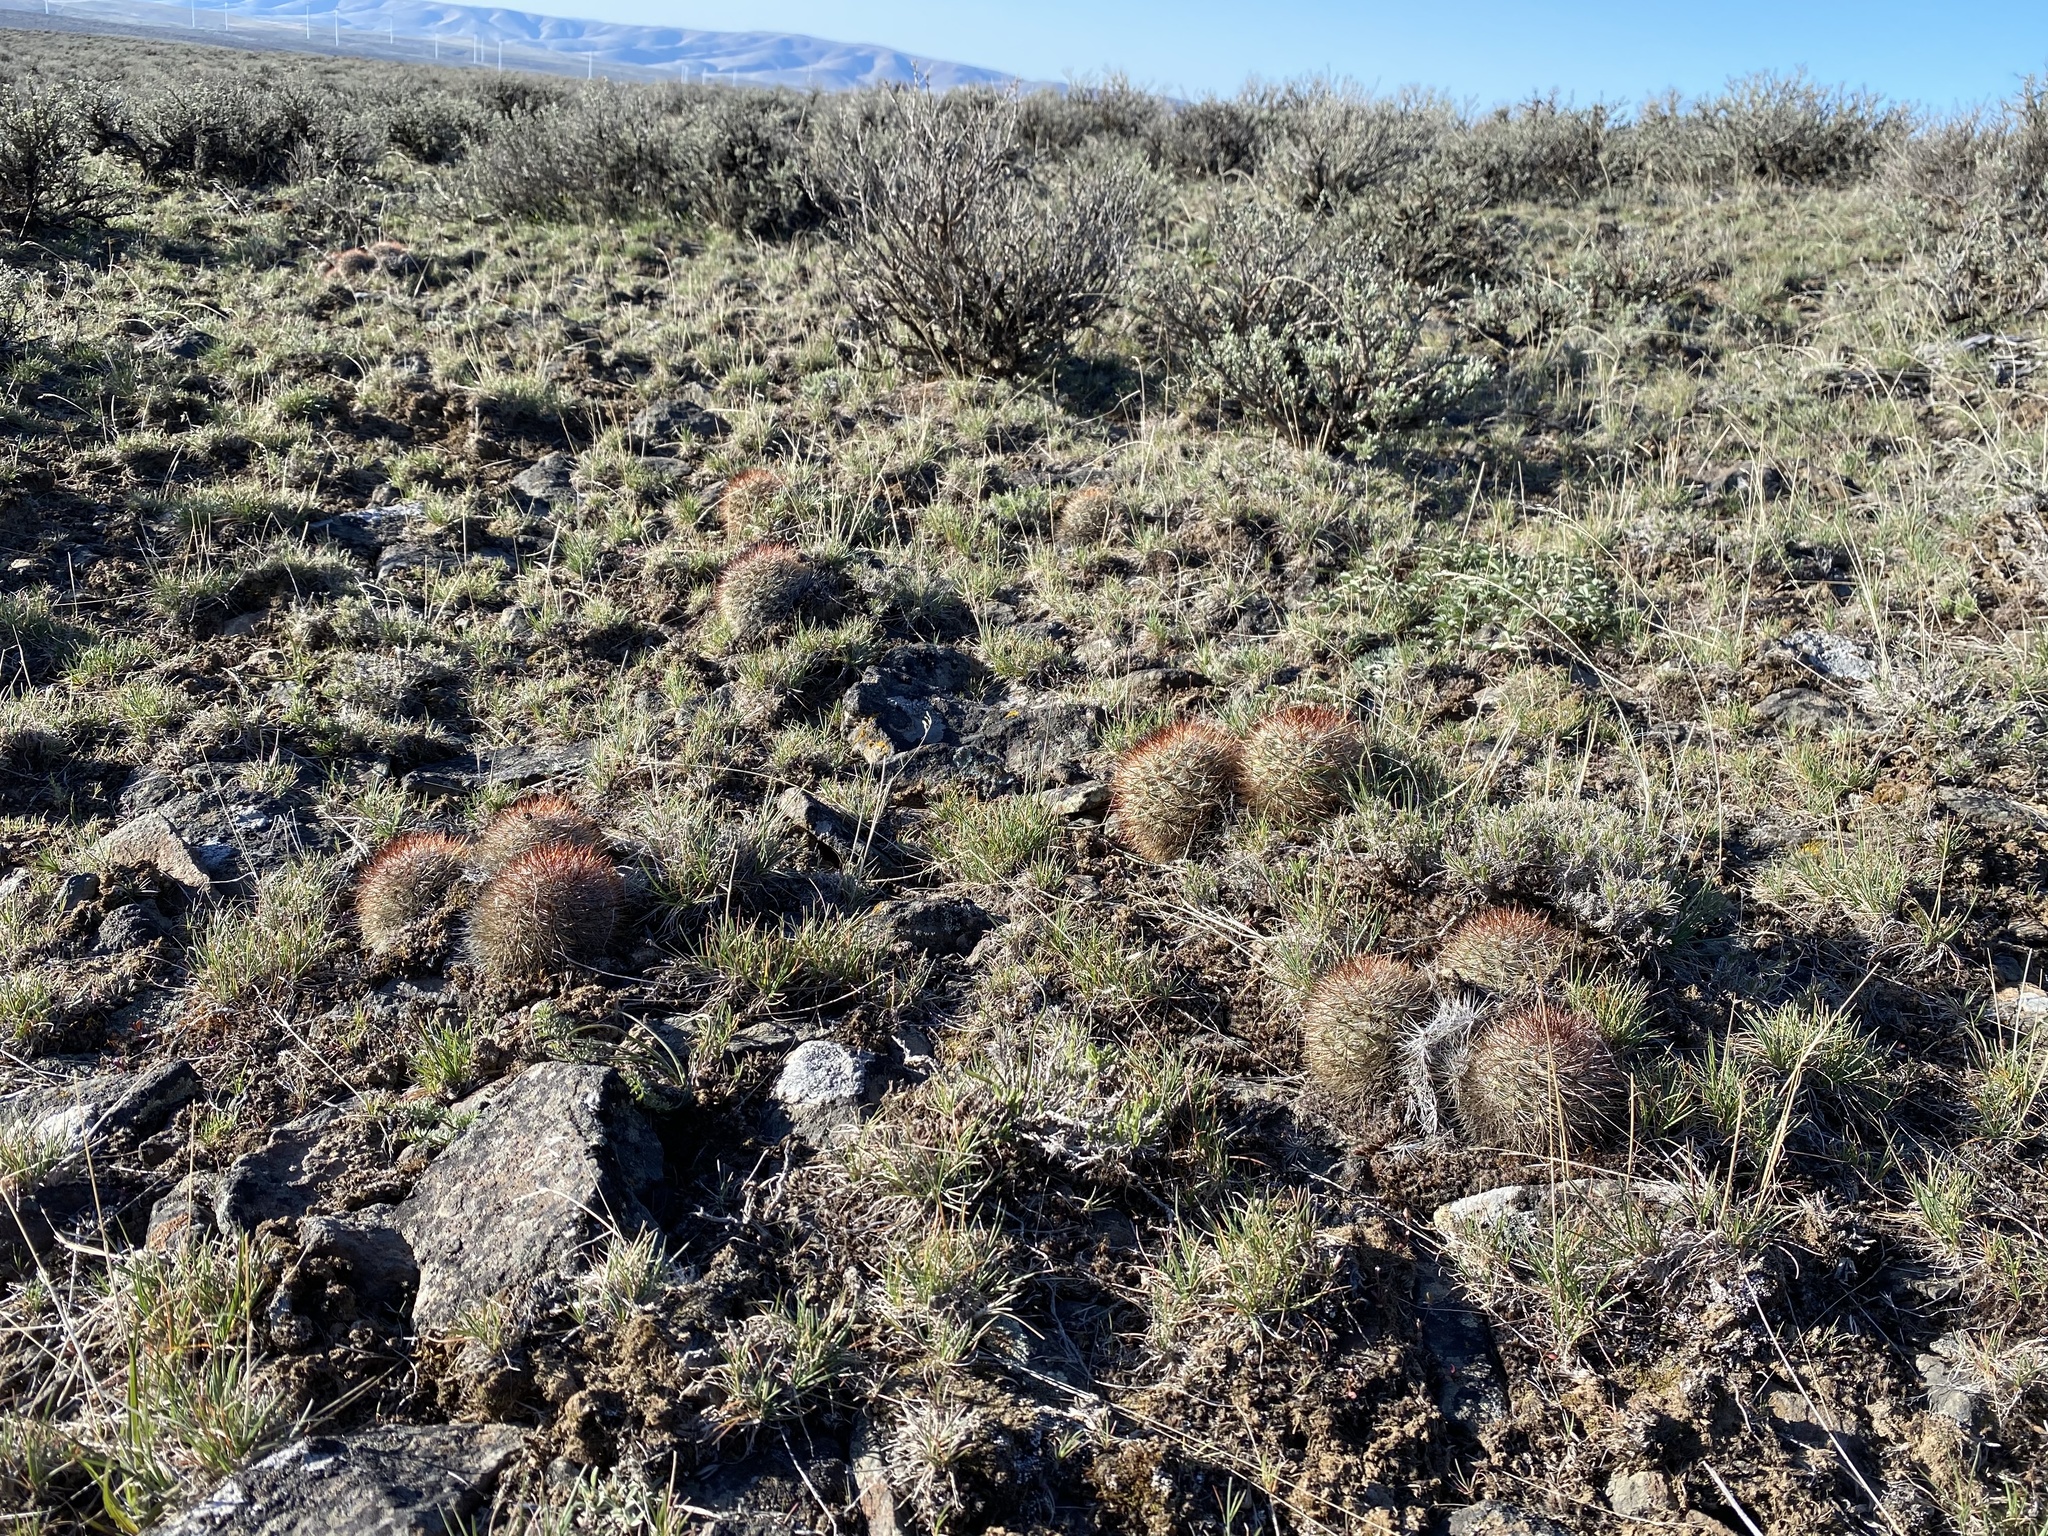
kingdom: Plantae
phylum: Tracheophyta
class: Magnoliopsida
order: Caryophyllales
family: Cactaceae
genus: Pediocactus
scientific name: Pediocactus nigrispinus
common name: Simpson's hedgehog cactus
